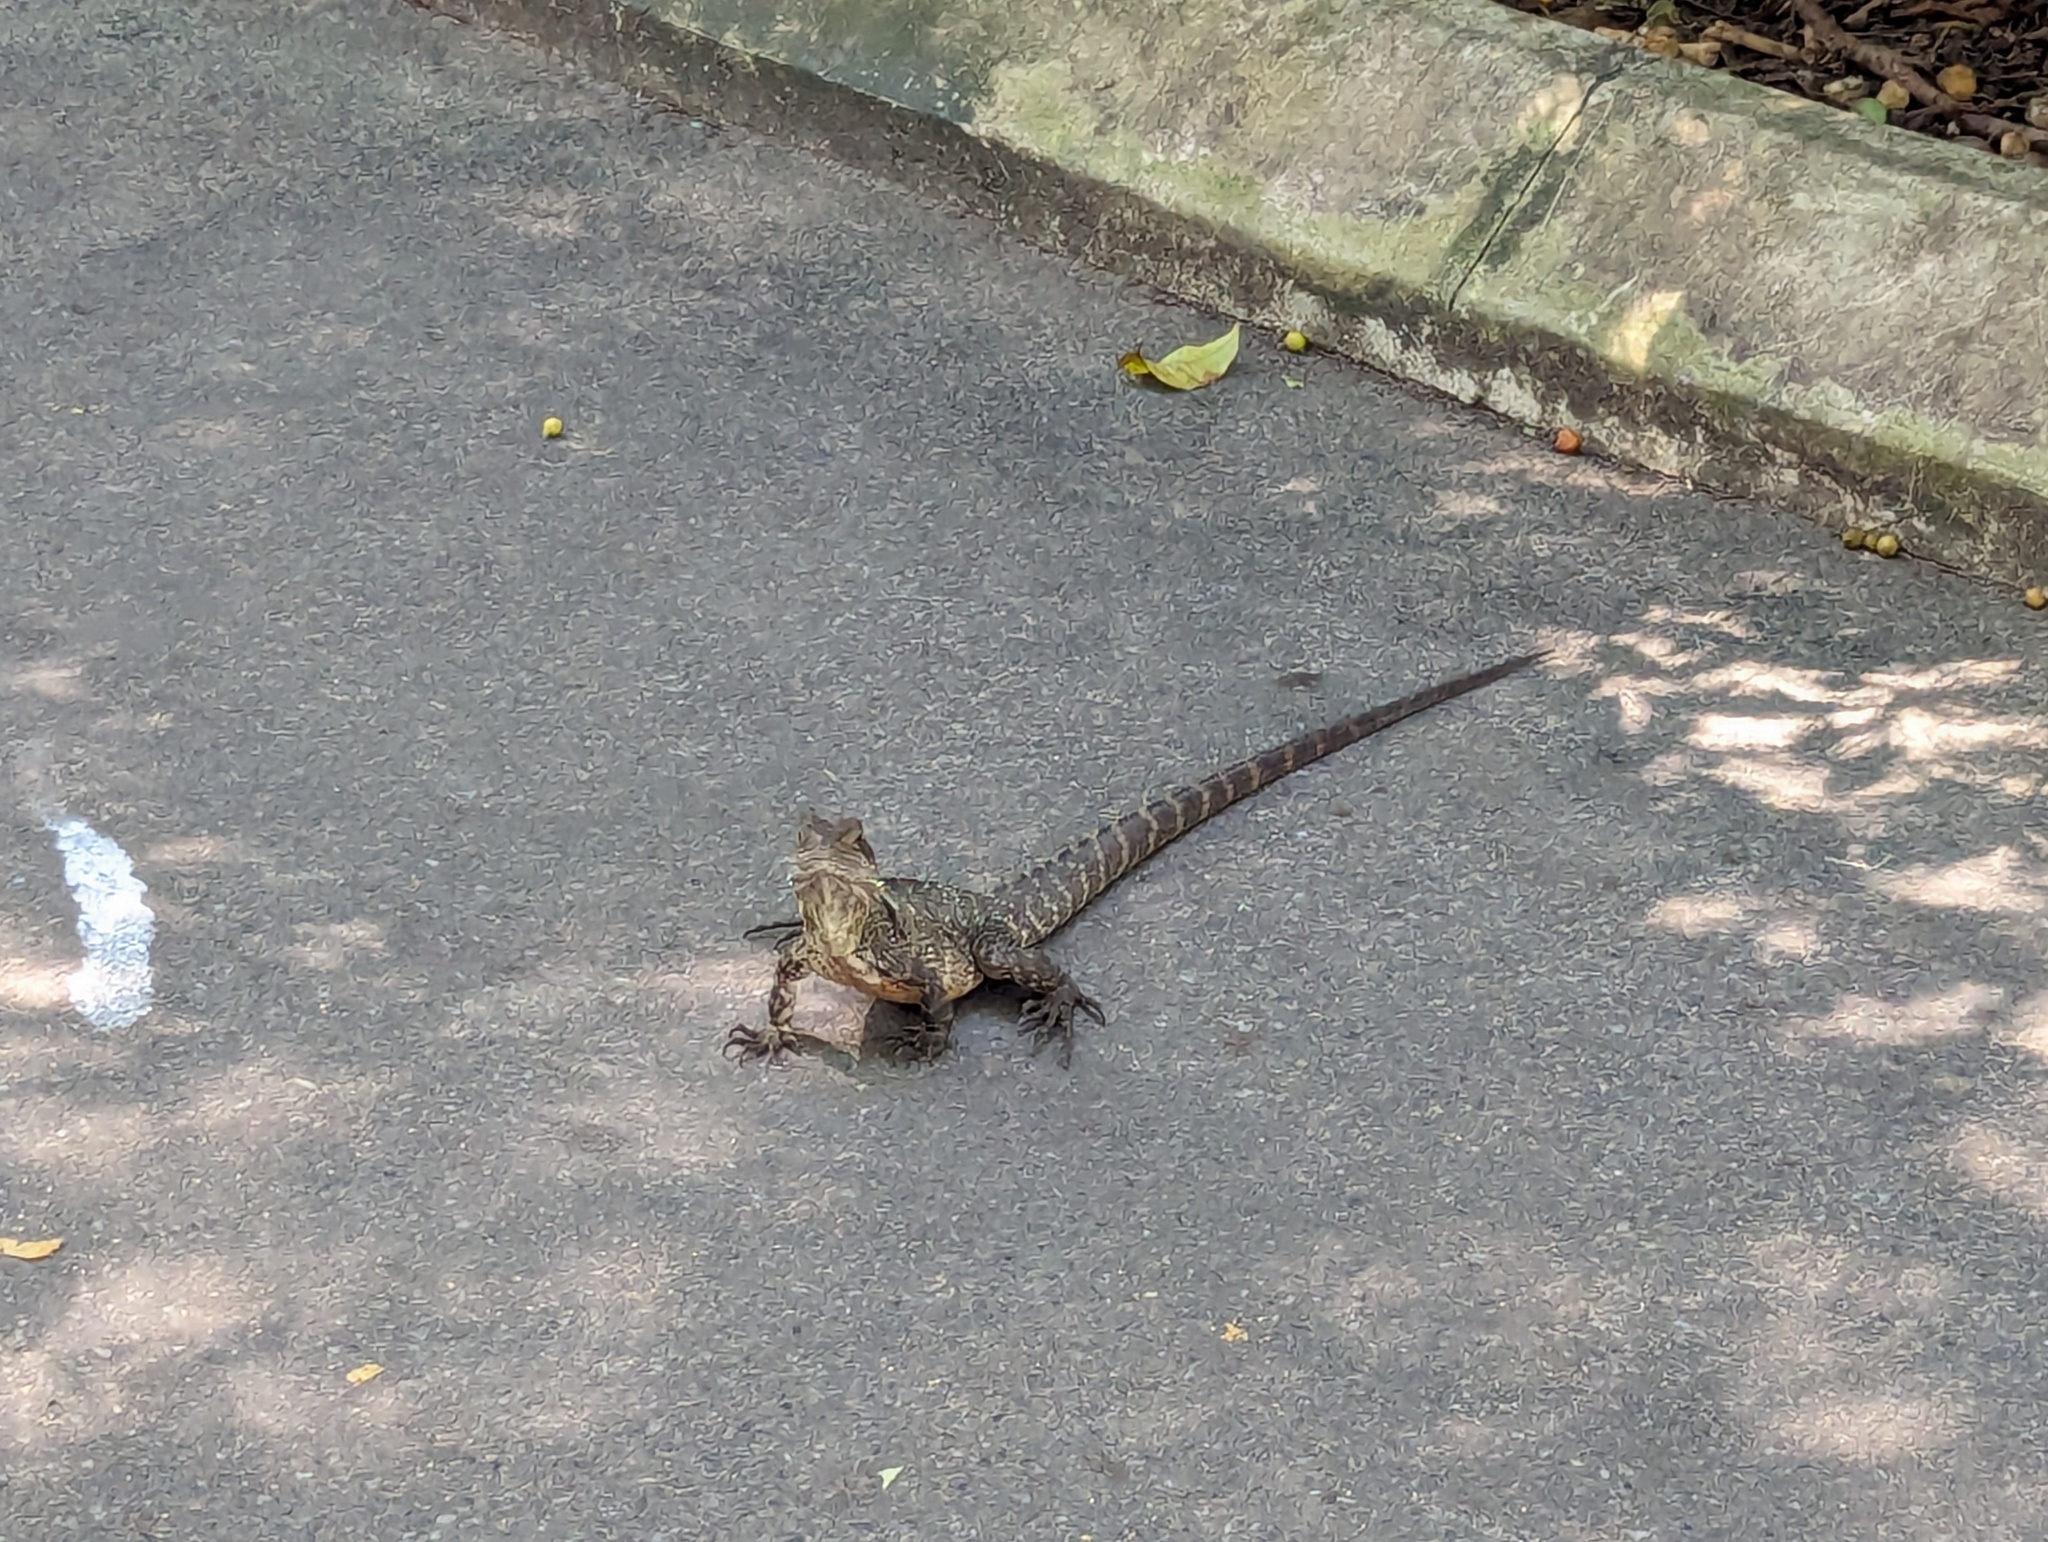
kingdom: Animalia
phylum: Chordata
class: Squamata
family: Agamidae
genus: Intellagama
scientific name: Intellagama lesueurii
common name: Eastern water dragon
